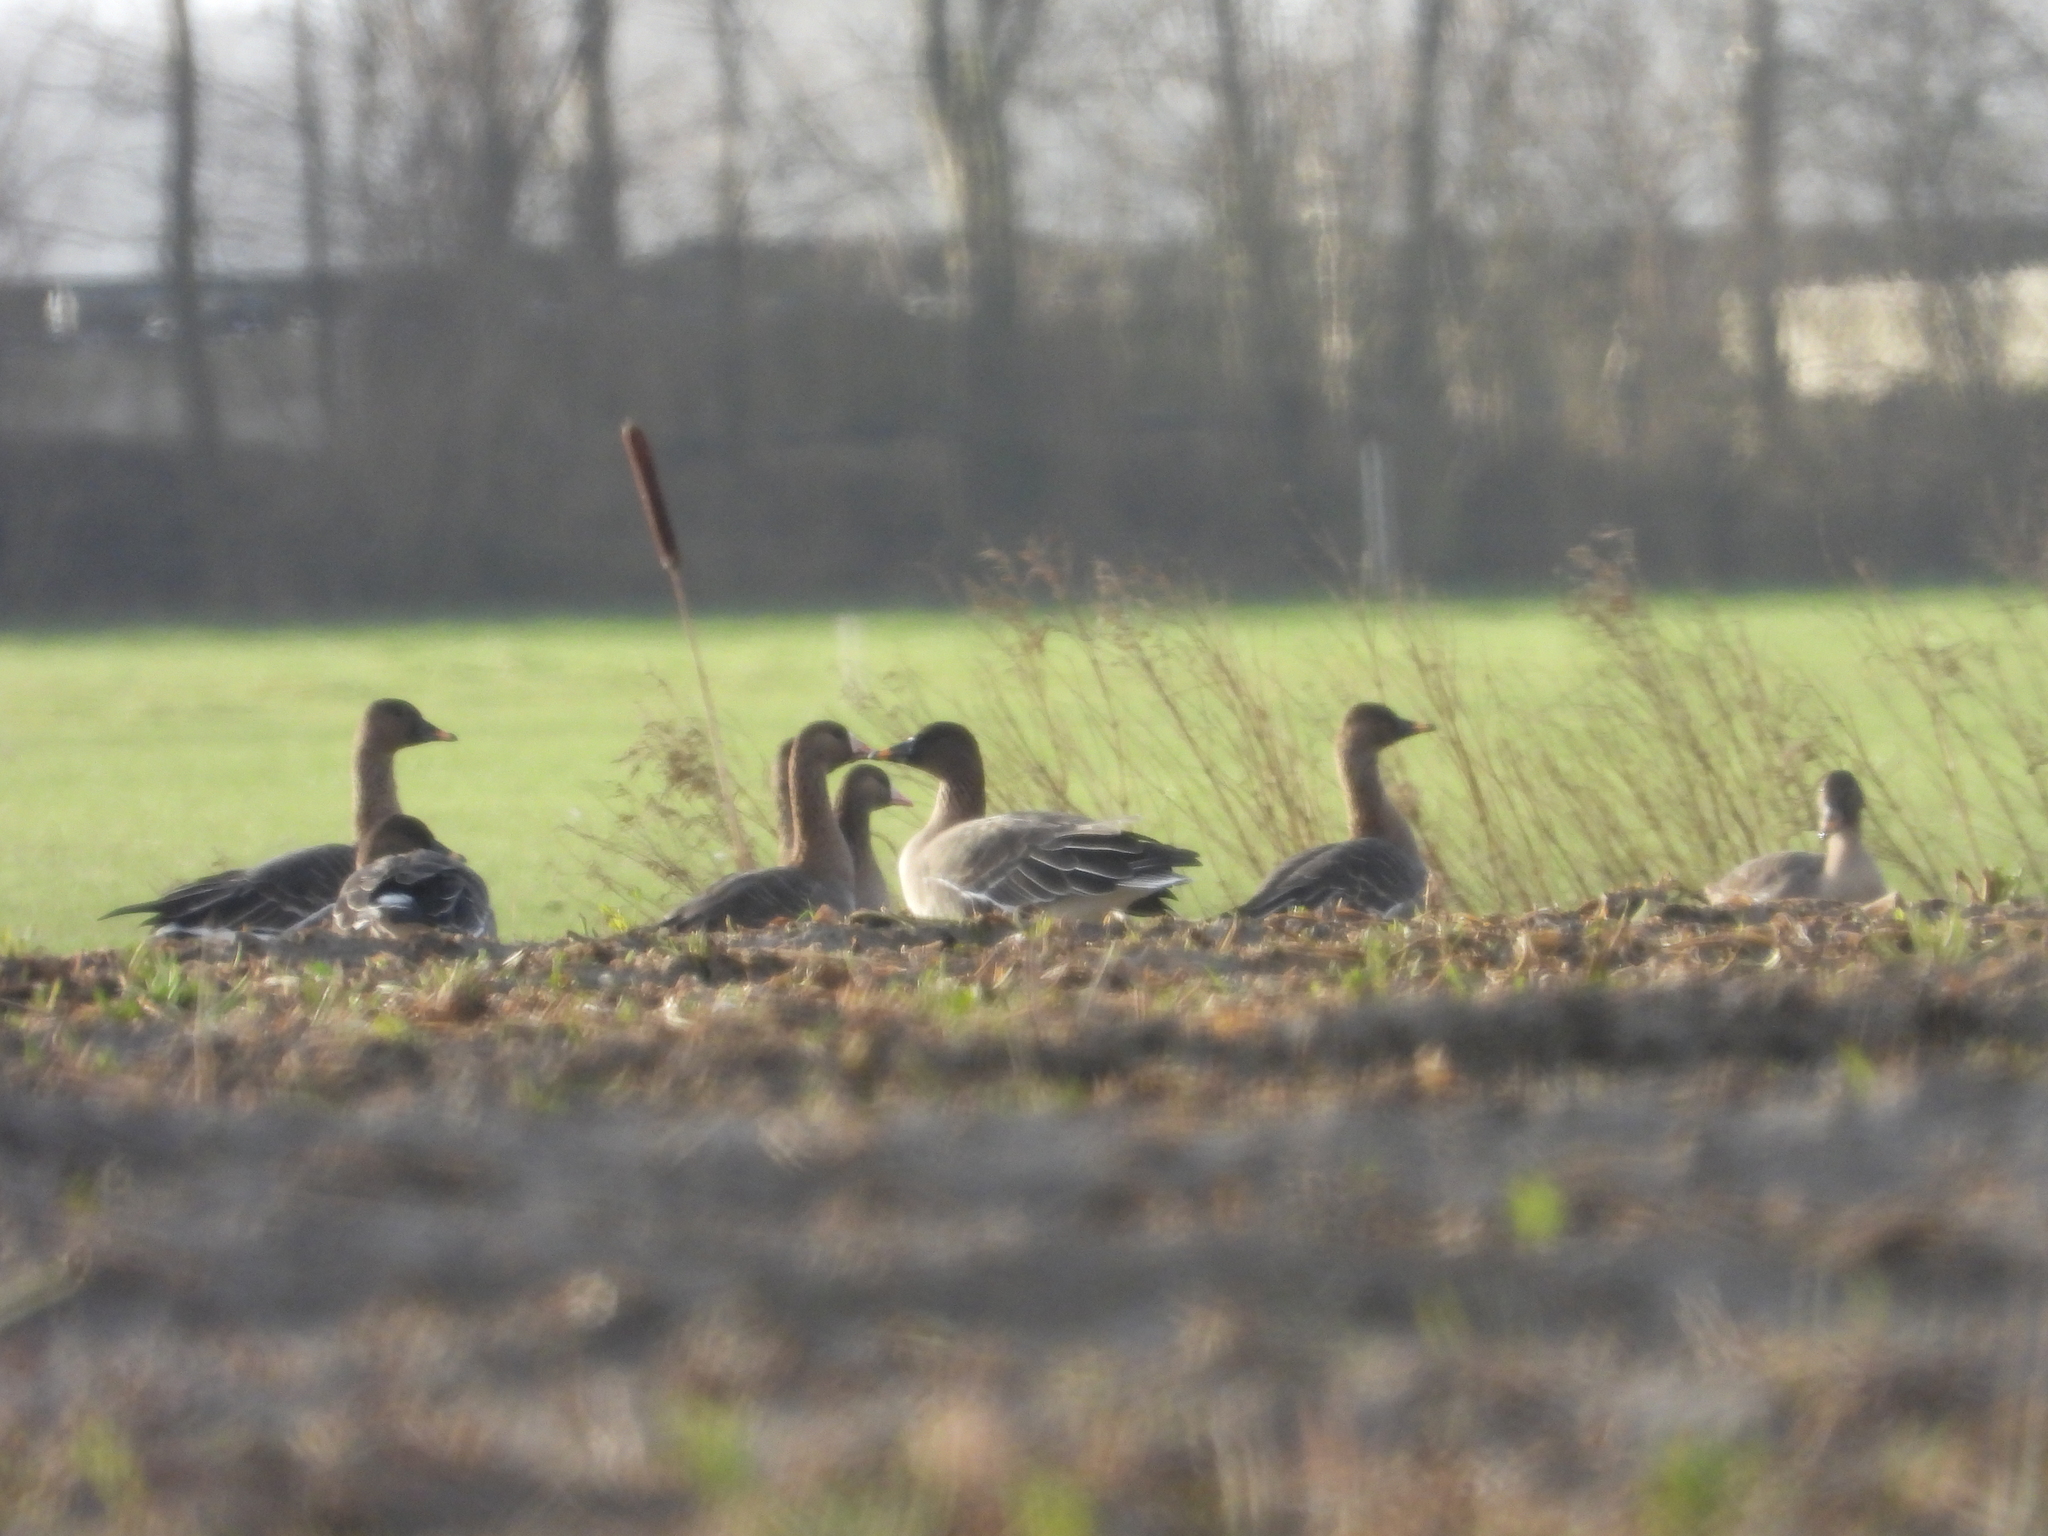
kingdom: Animalia
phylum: Chordata
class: Aves
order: Anseriformes
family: Anatidae
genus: Anser
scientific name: Anser serrirostris
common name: Tundra bean goose
